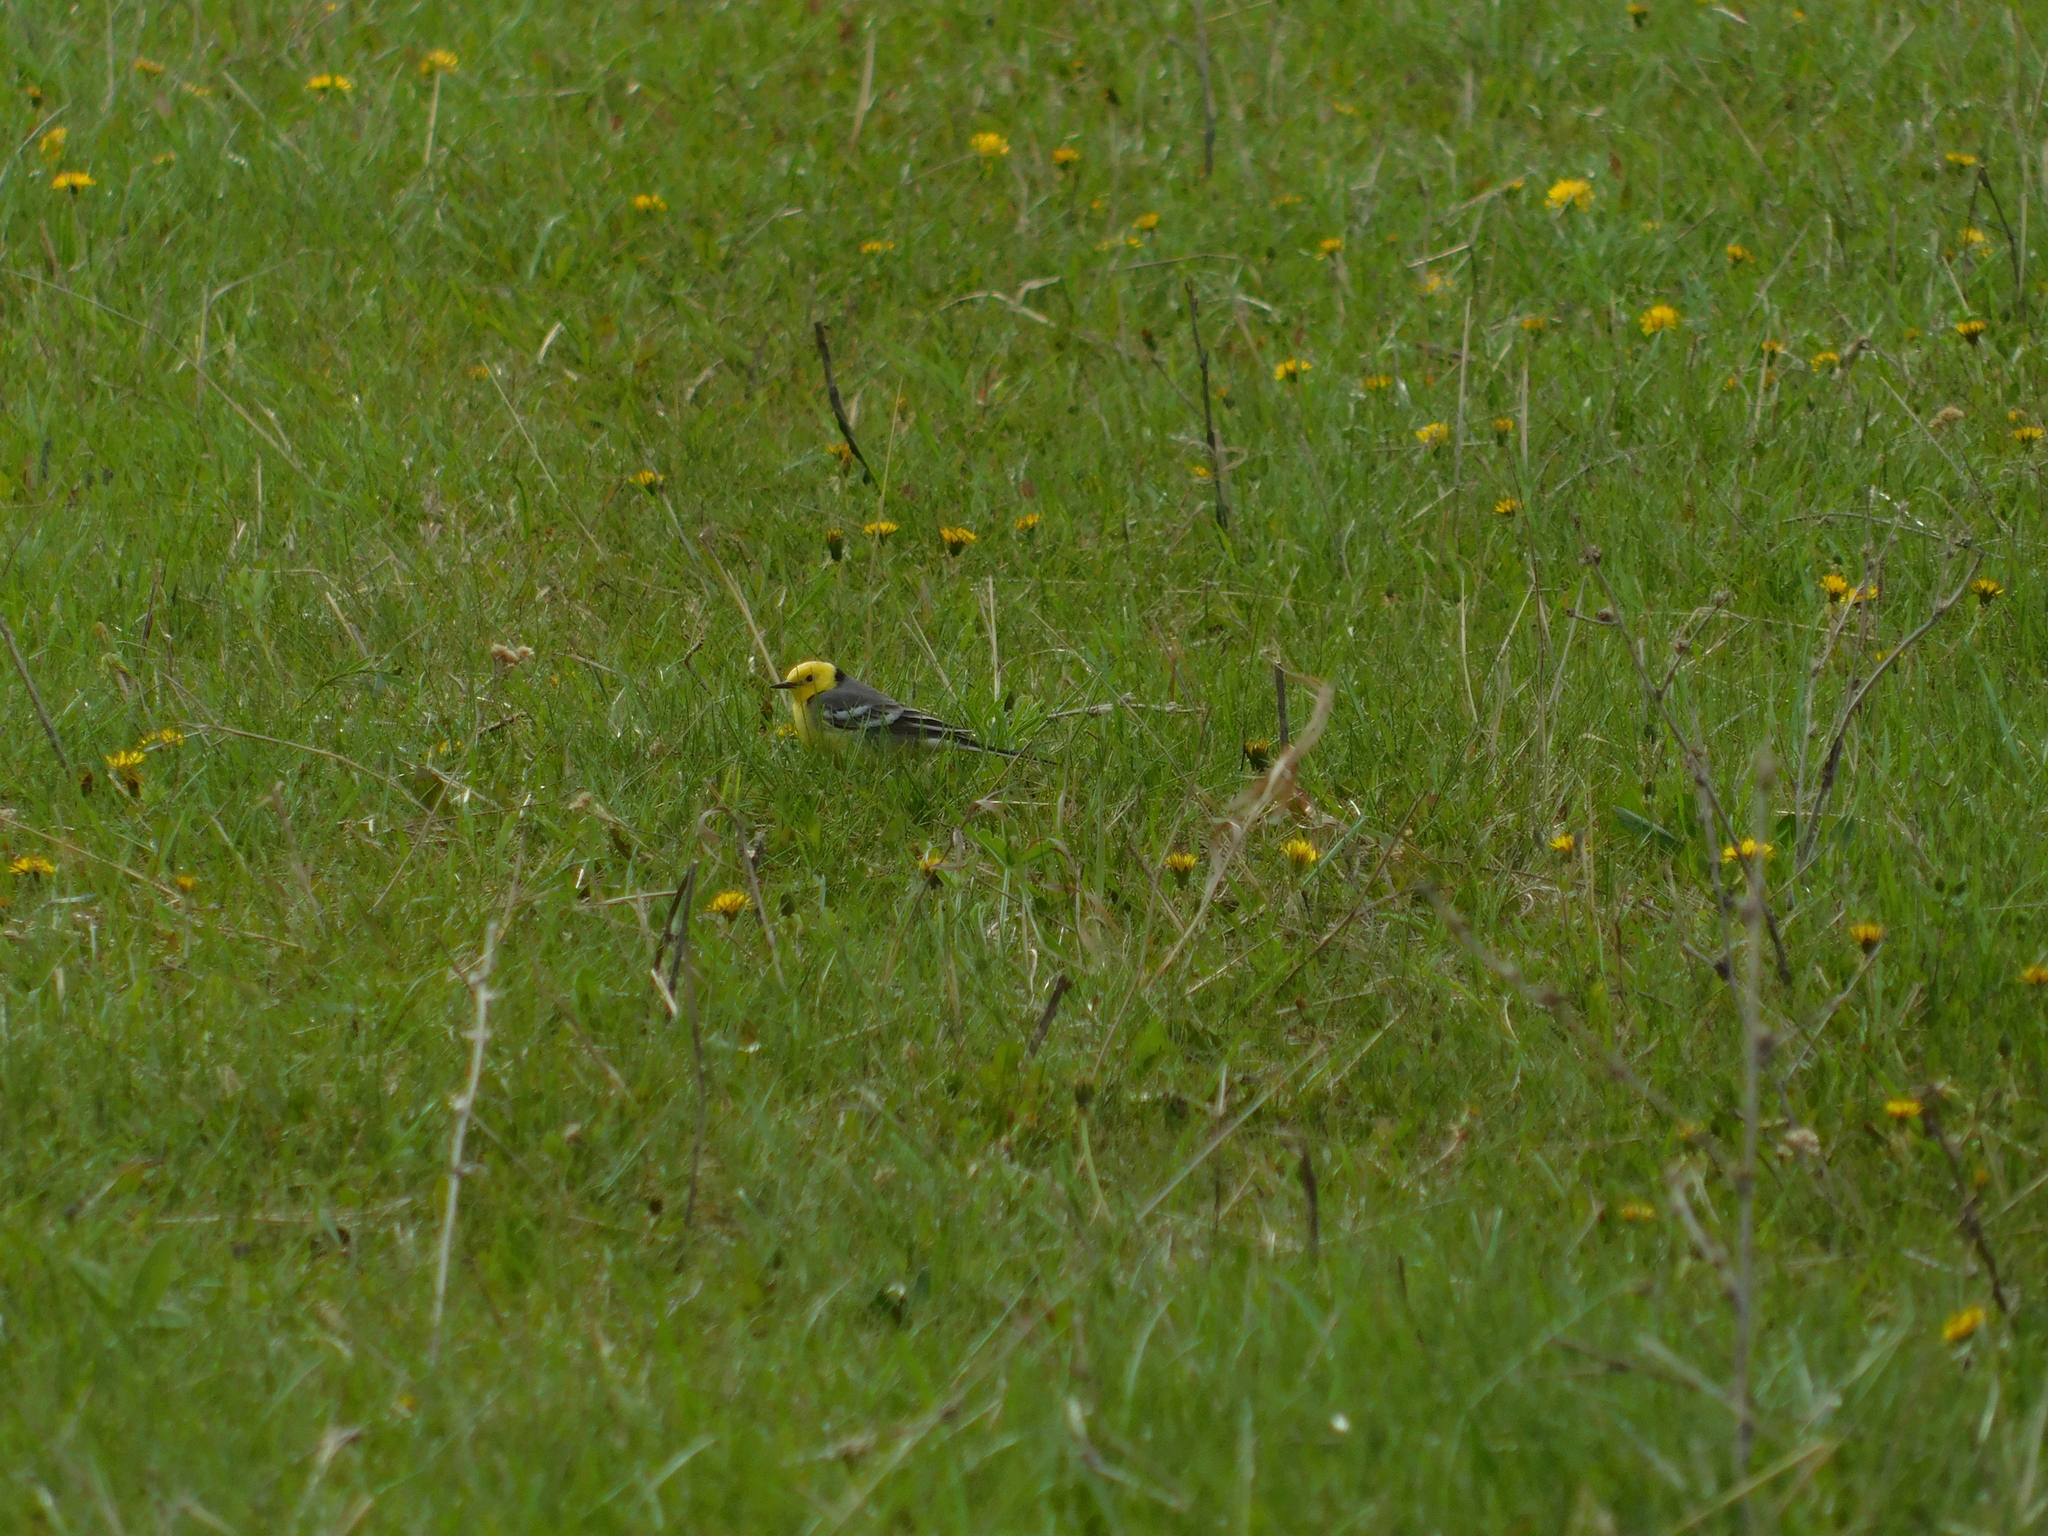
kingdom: Animalia
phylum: Chordata
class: Aves
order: Passeriformes
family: Motacillidae
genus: Motacilla
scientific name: Motacilla citreola
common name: Citrine wagtail
